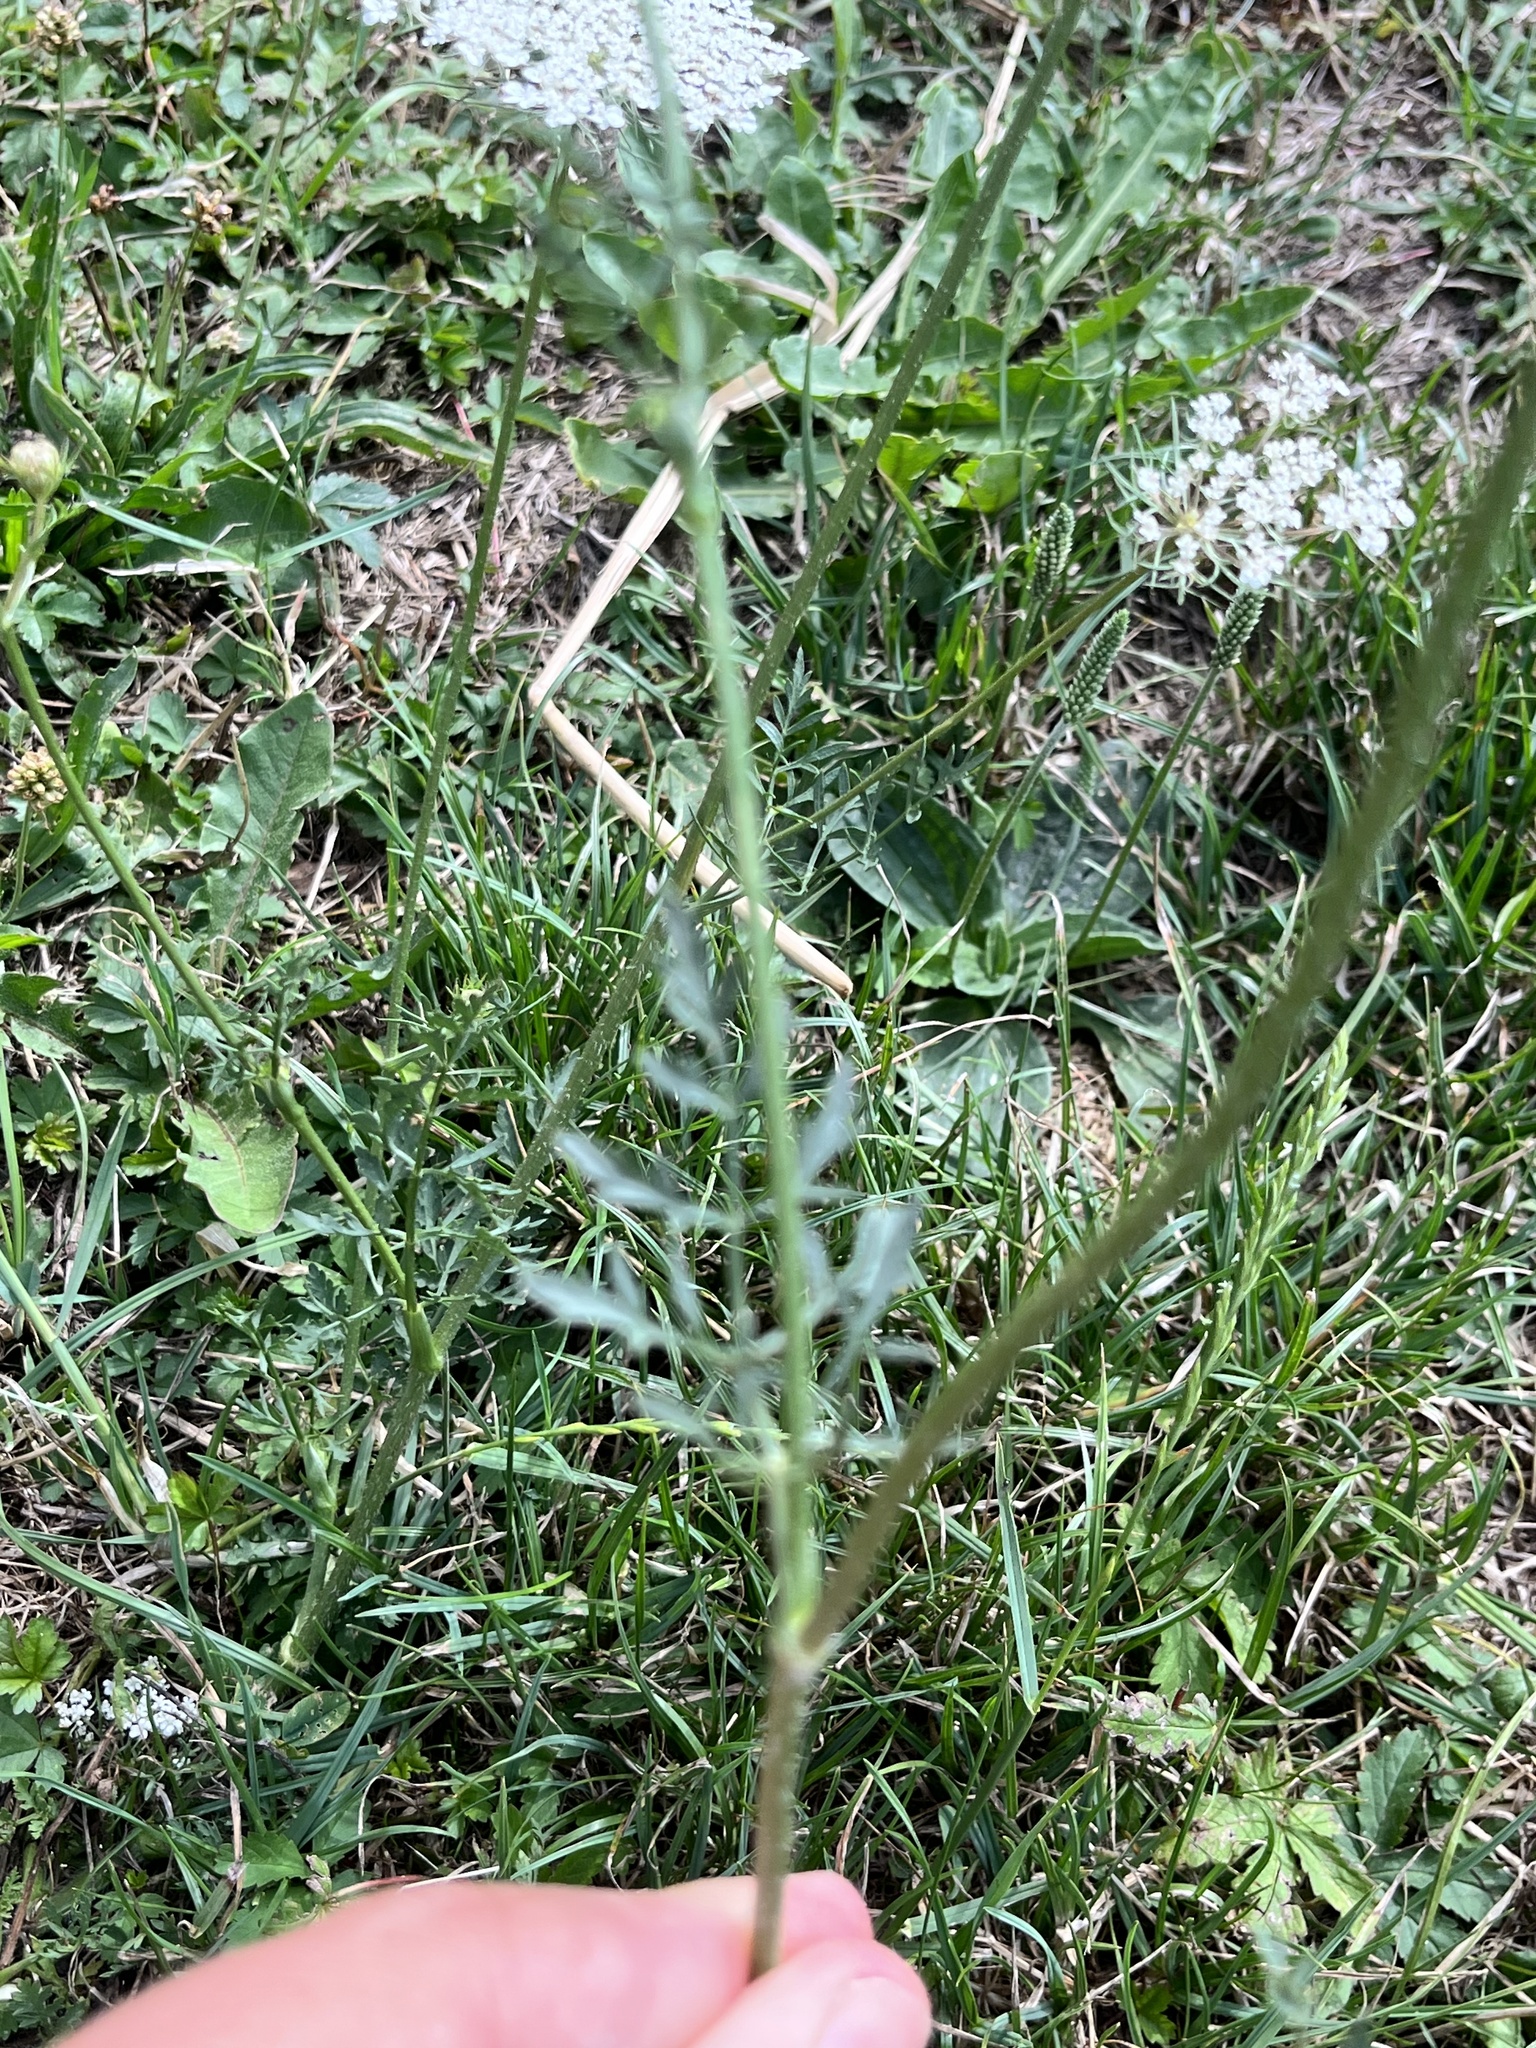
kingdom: Plantae
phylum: Tracheophyta
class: Magnoliopsida
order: Apiales
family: Apiaceae
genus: Daucus
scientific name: Daucus carota
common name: Wild carrot
